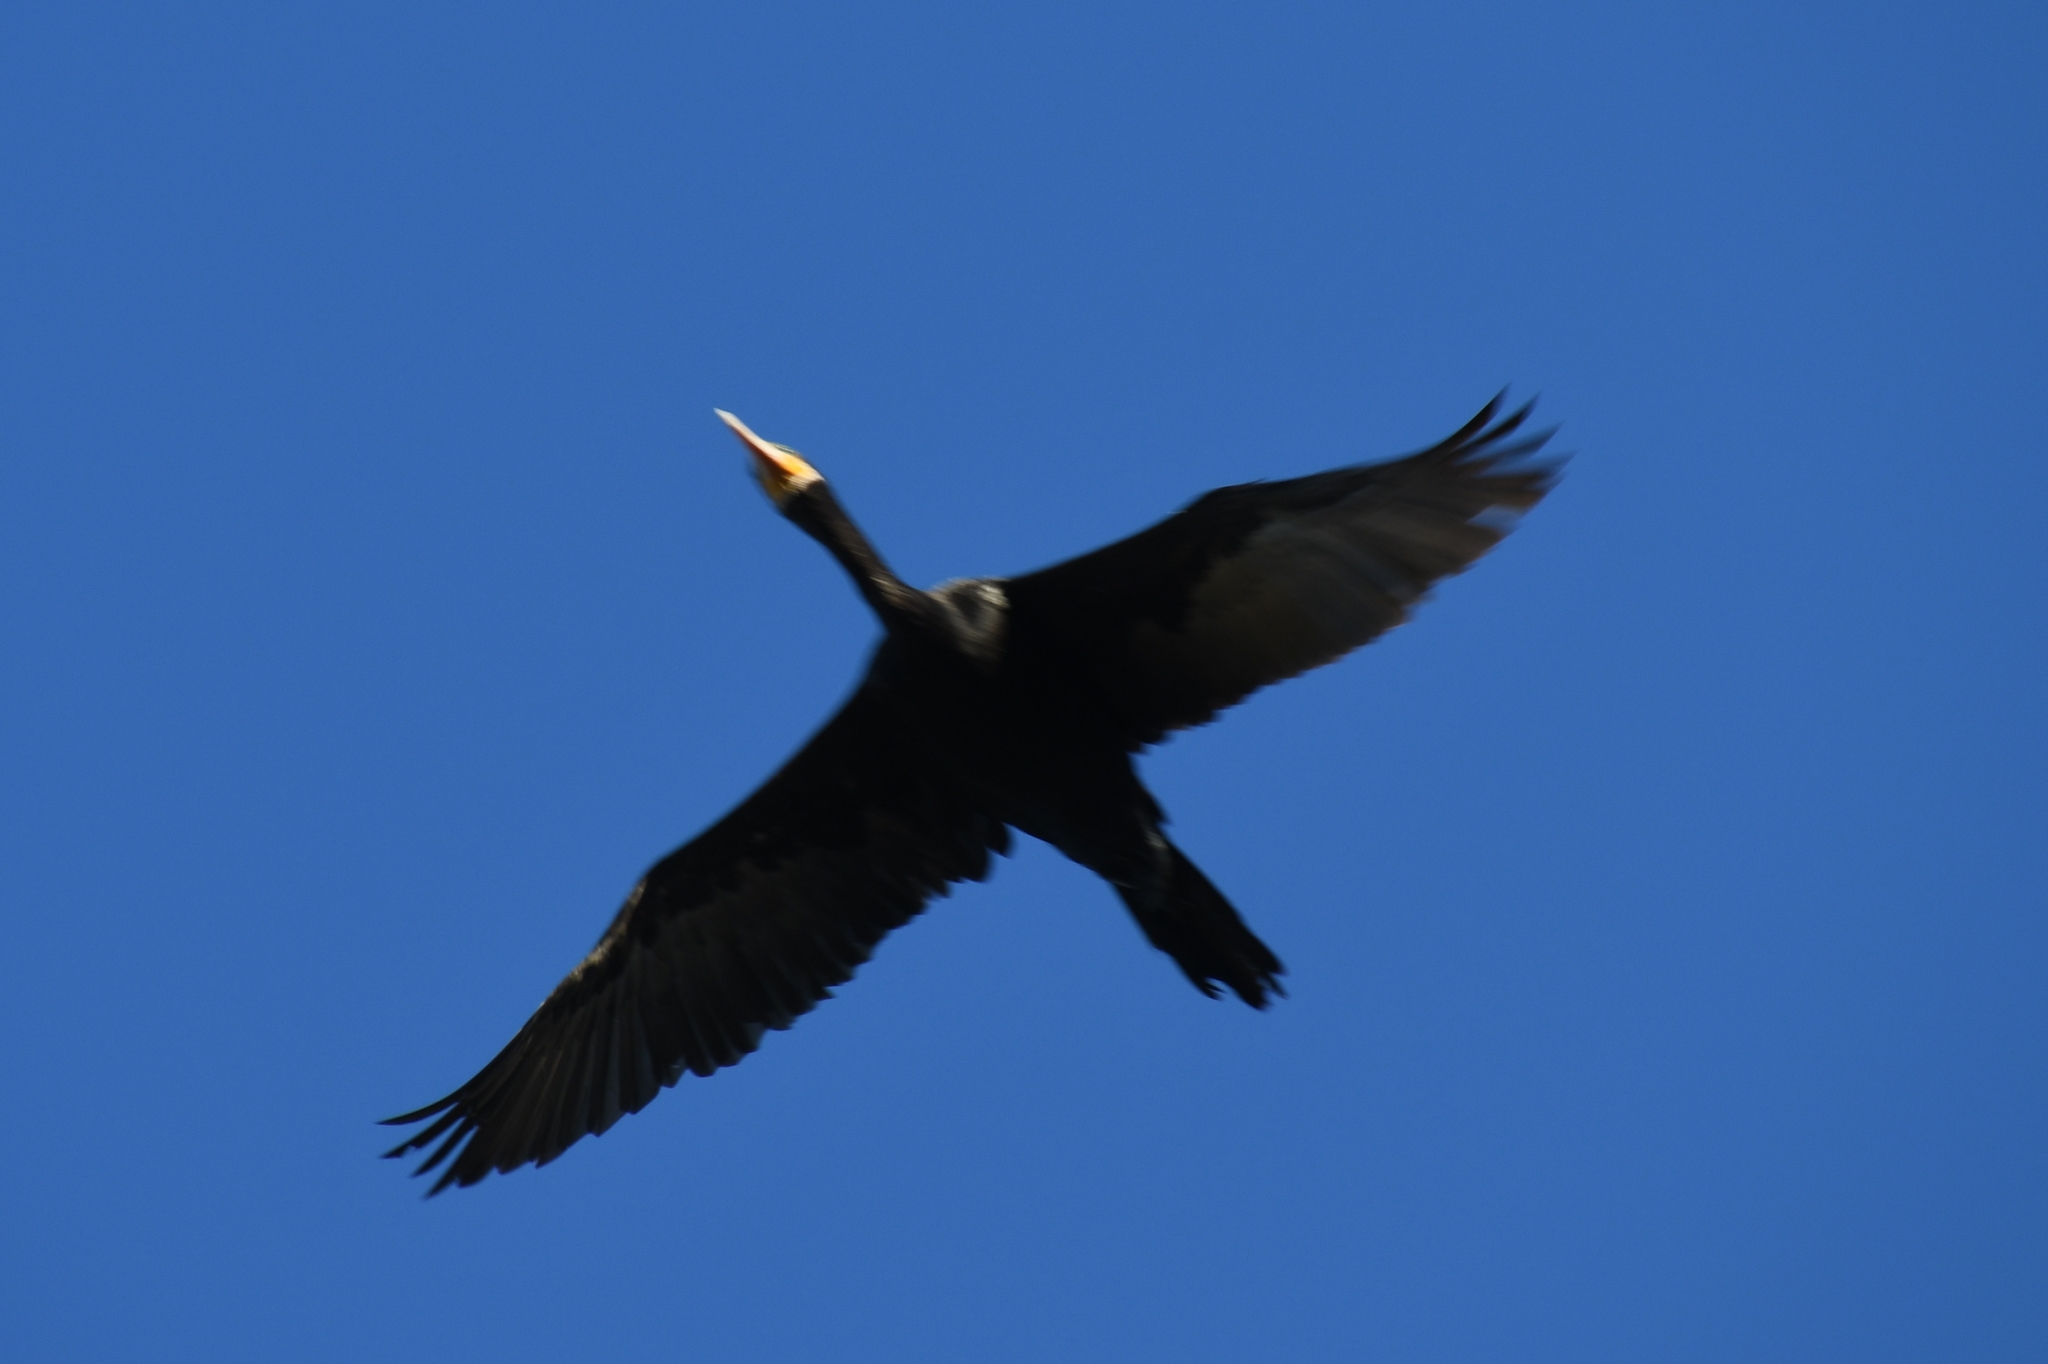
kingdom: Animalia
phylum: Chordata
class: Aves
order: Suliformes
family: Phalacrocoracidae
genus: Phalacrocorax
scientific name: Phalacrocorax brasilianus
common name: Neotropic cormorant
